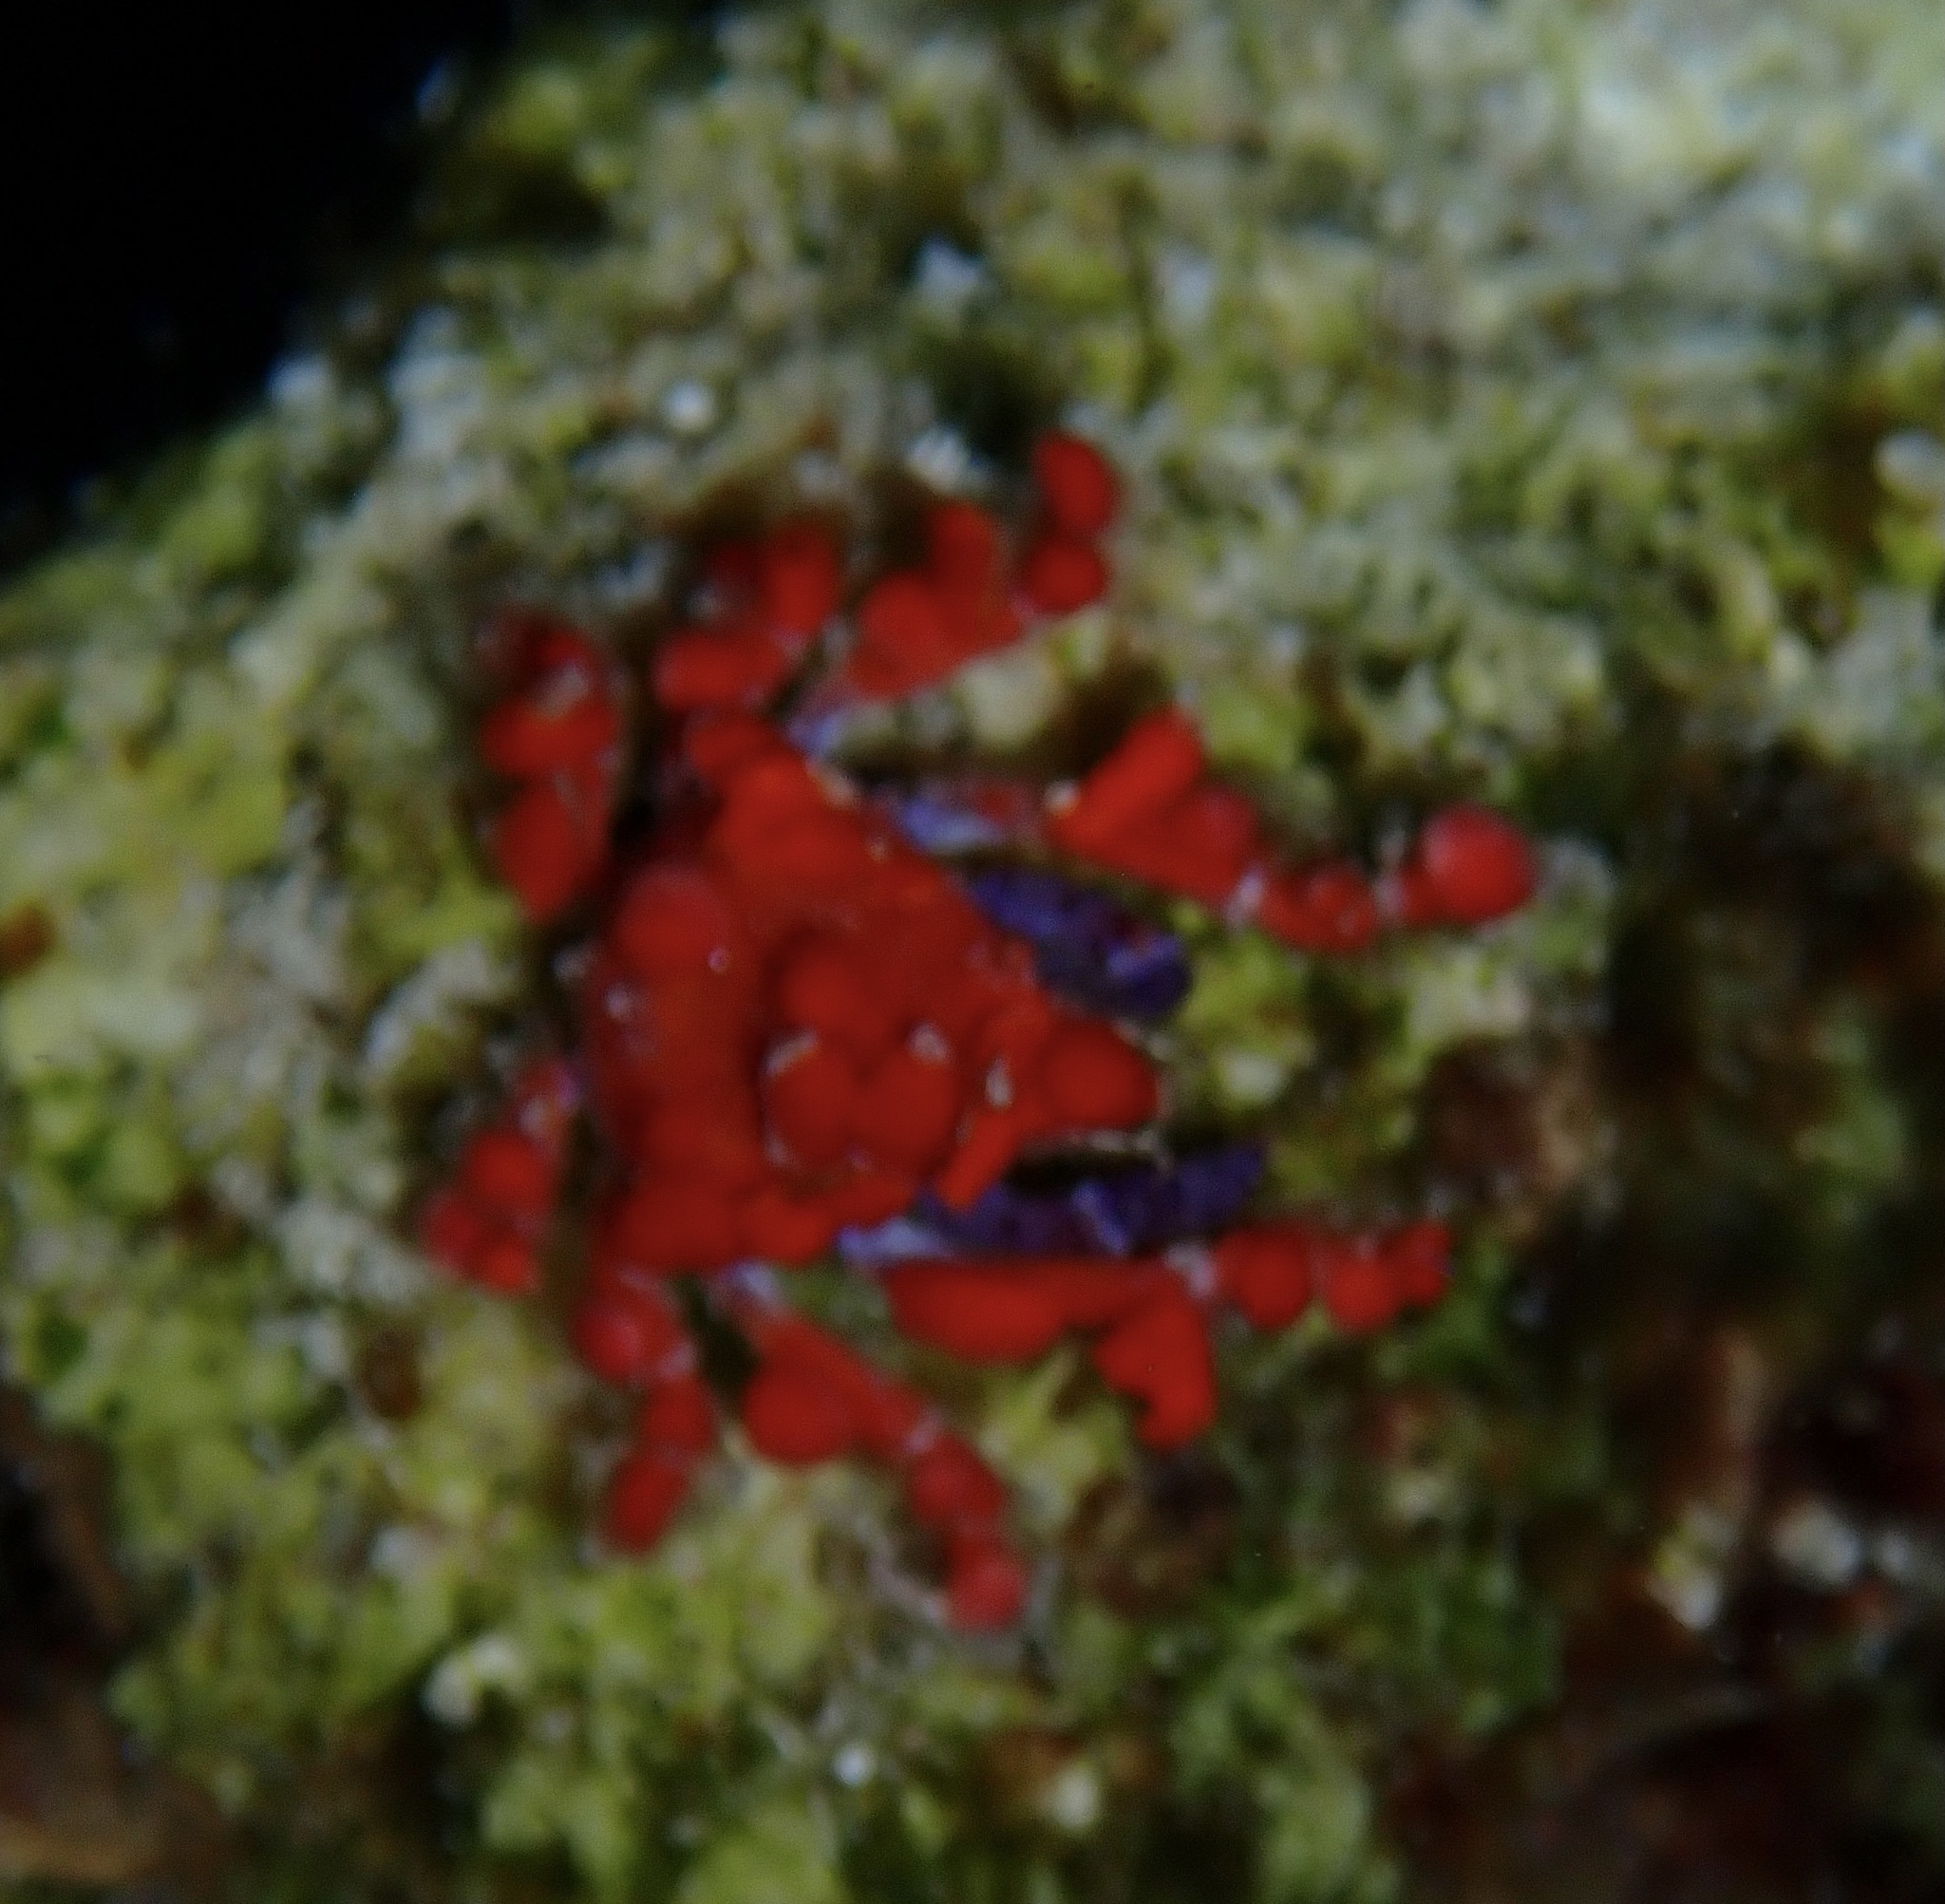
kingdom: Animalia
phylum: Arthropoda
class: Malacostraca
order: Decapoda
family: Epialtidae
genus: Pelia
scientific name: Pelia mutica
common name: Cryptic teardrop crab
